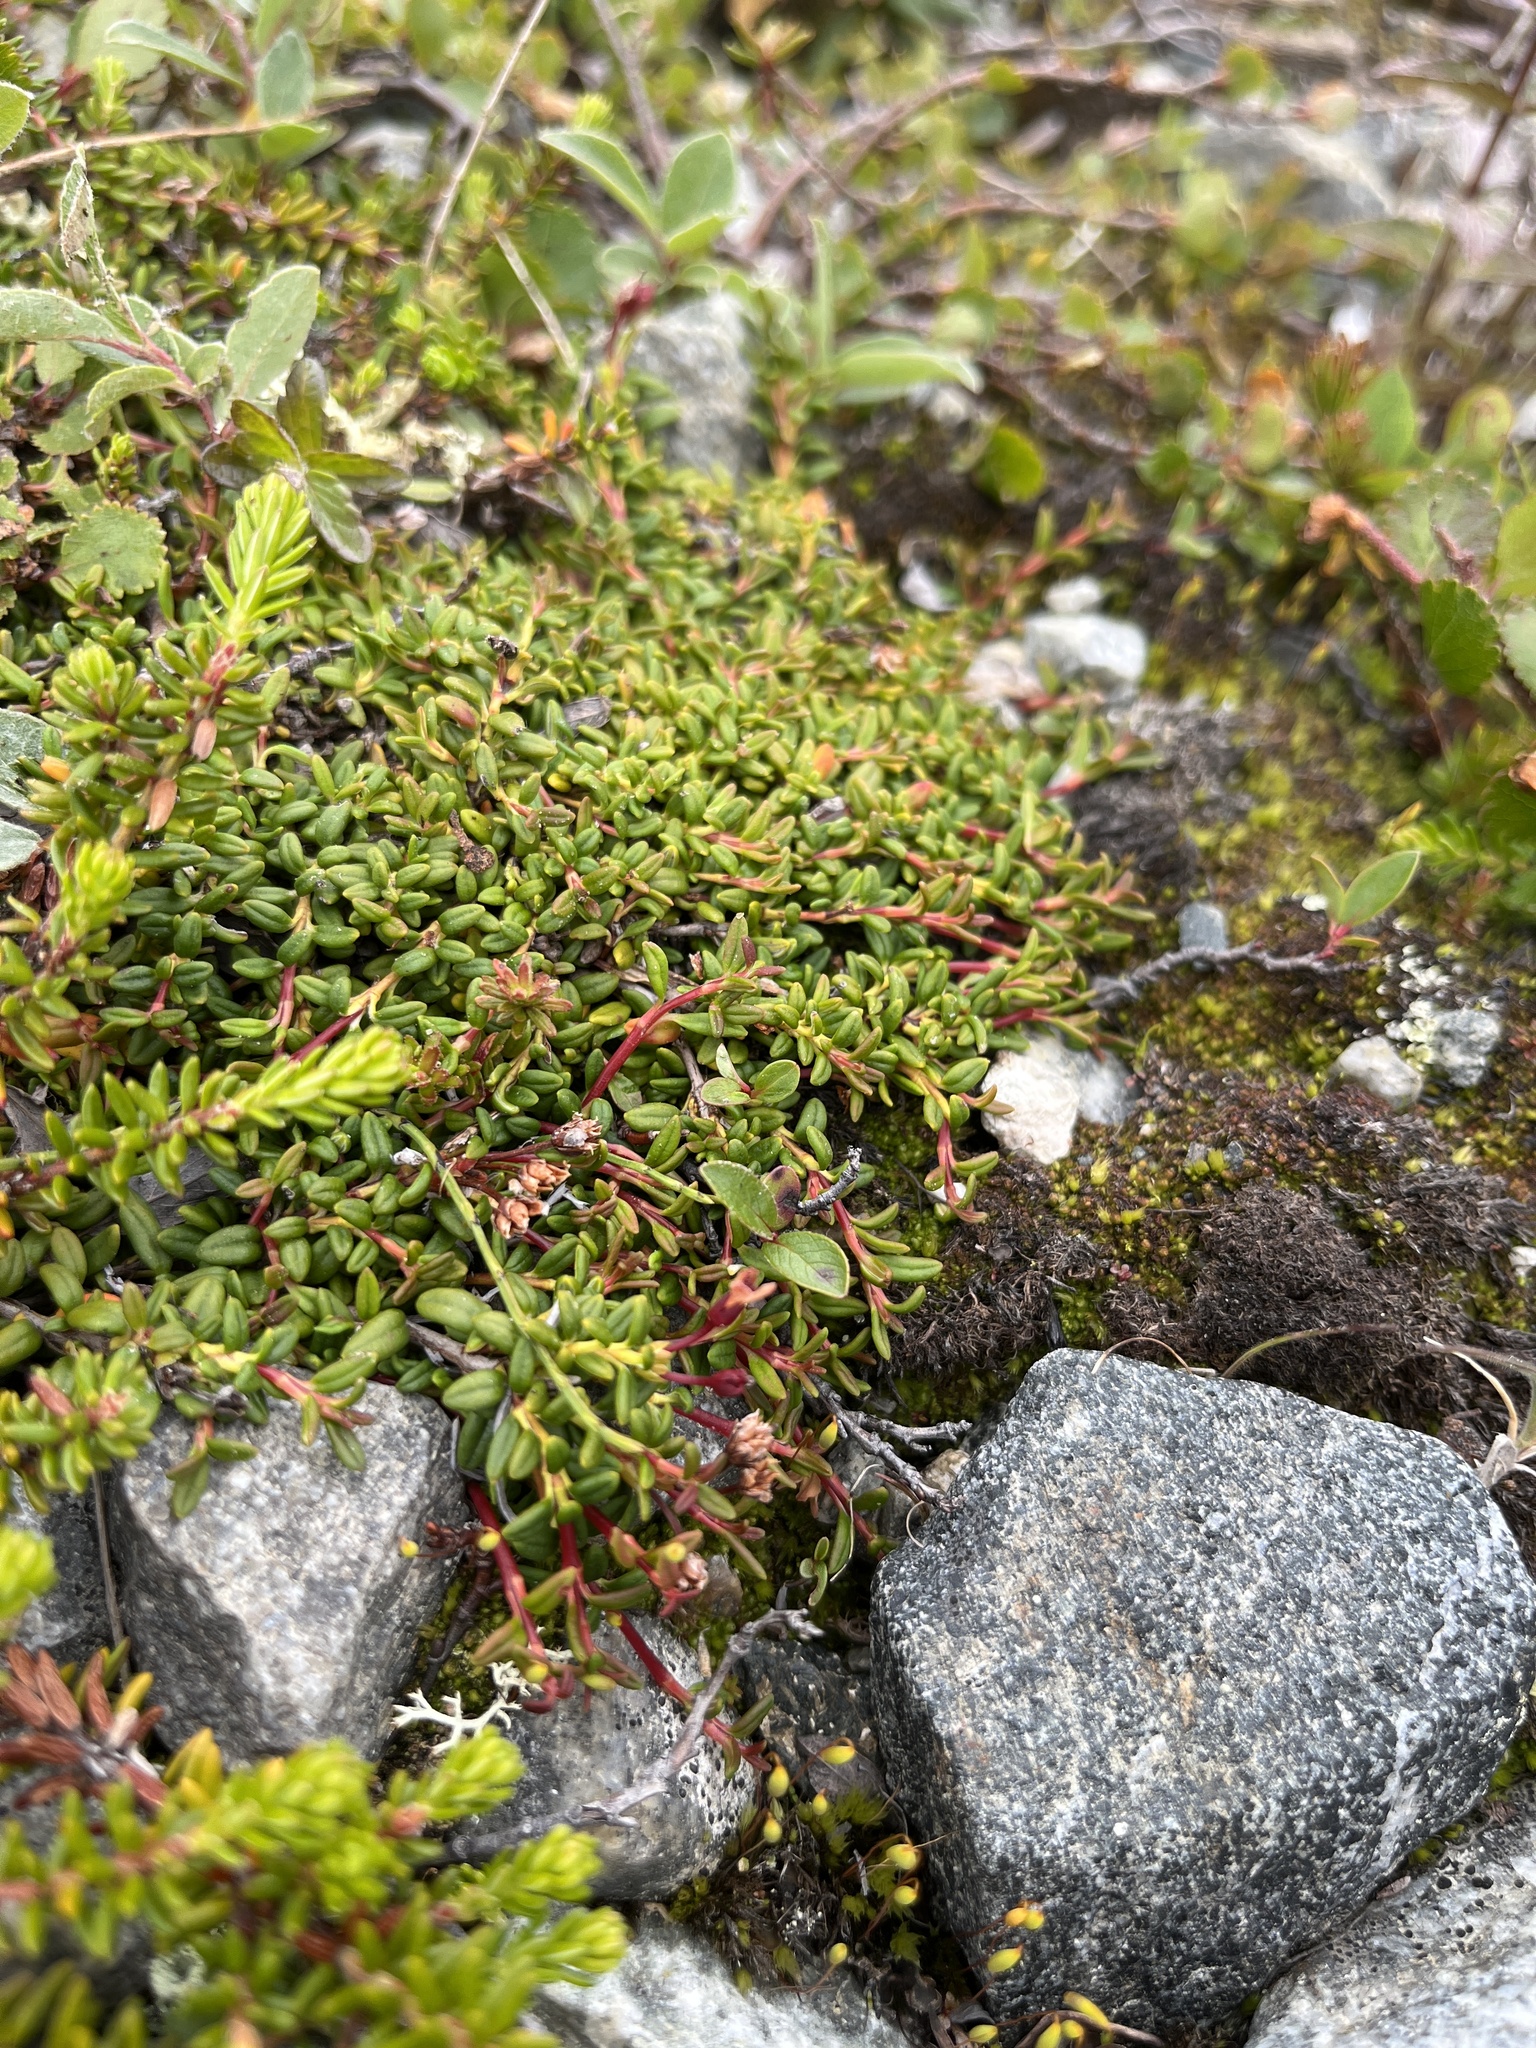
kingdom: Plantae
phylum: Tracheophyta
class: Magnoliopsida
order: Ericales
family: Ericaceae
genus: Kalmia
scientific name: Kalmia procumbens
